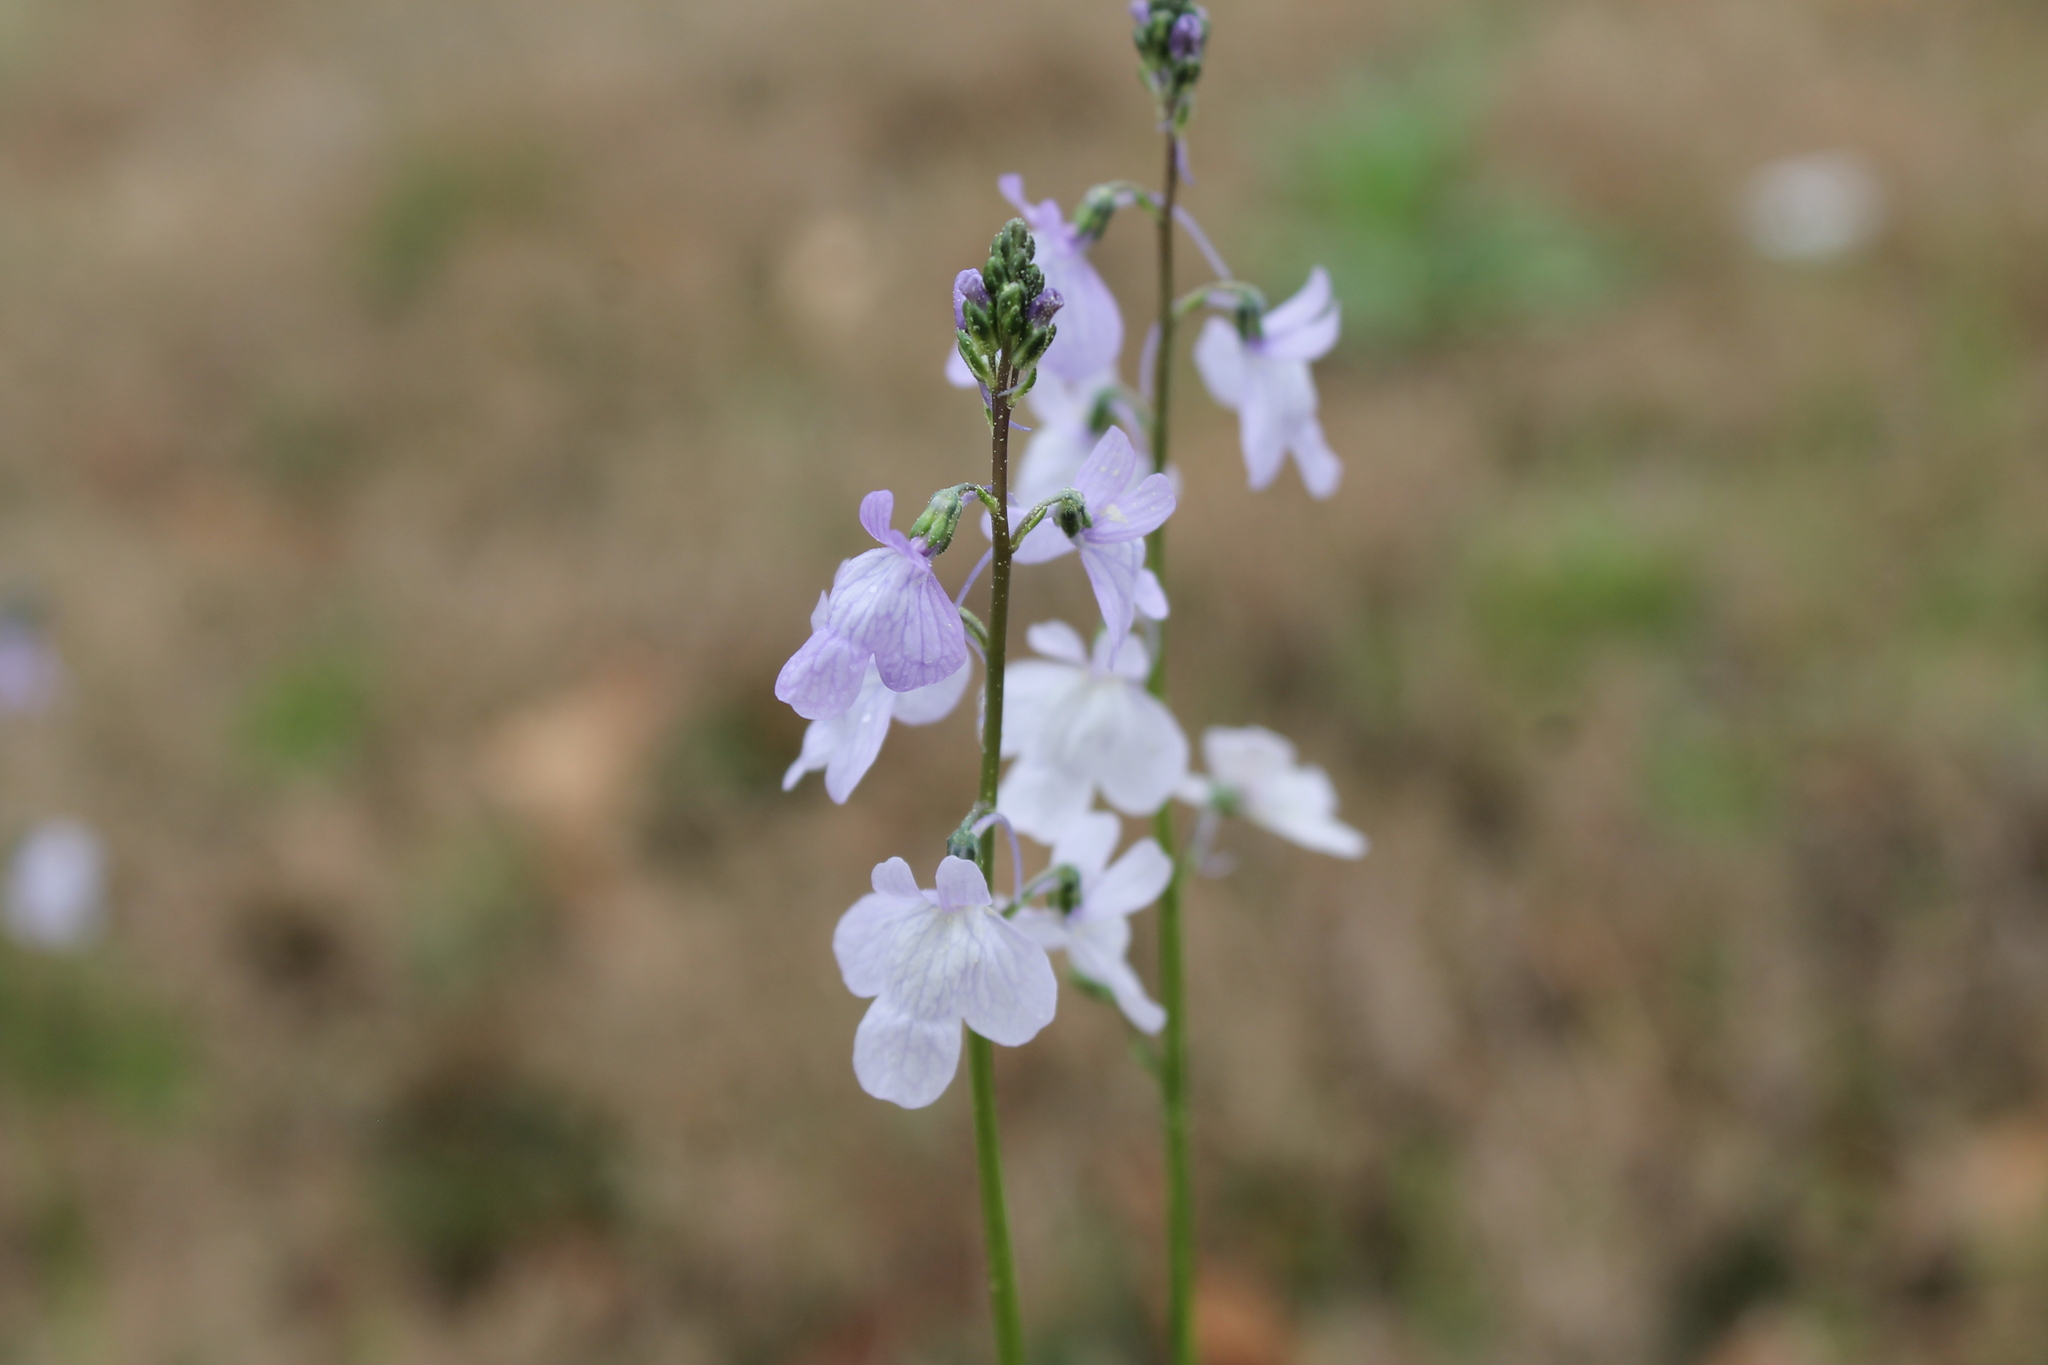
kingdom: Plantae
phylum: Tracheophyta
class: Magnoliopsida
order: Lamiales
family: Plantaginaceae
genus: Nuttallanthus
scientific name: Nuttallanthus texanus
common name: Texas toadflax
